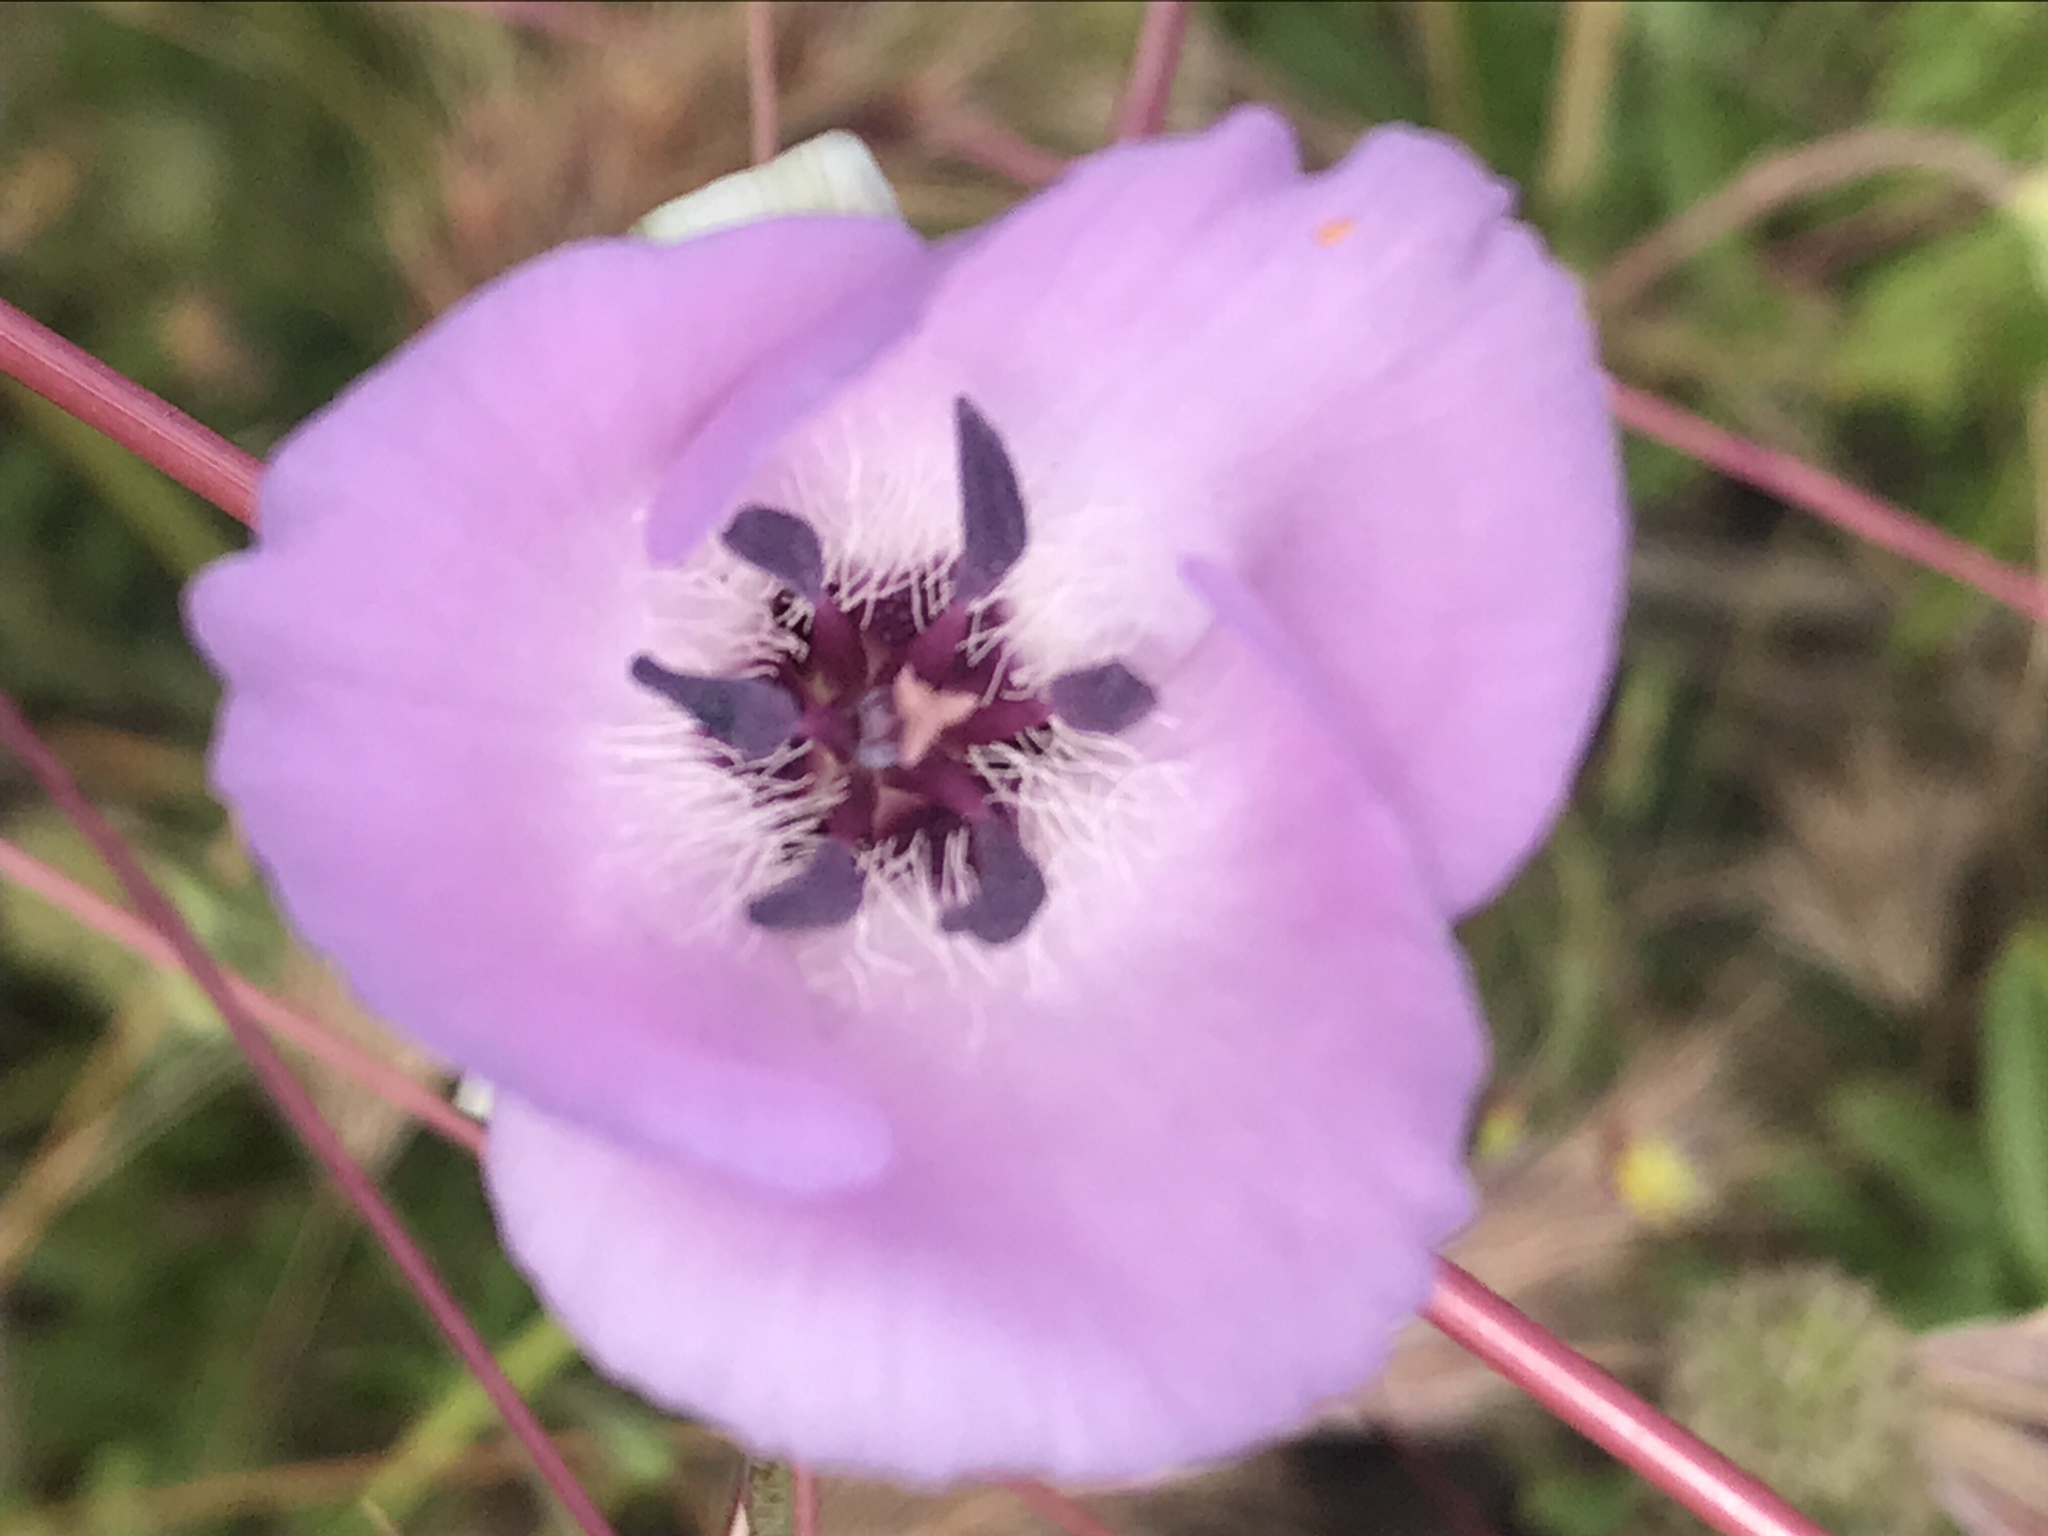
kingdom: Plantae
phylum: Tracheophyta
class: Liliopsida
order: Liliales
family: Liliaceae
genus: Calochortus
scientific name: Calochortus splendens
